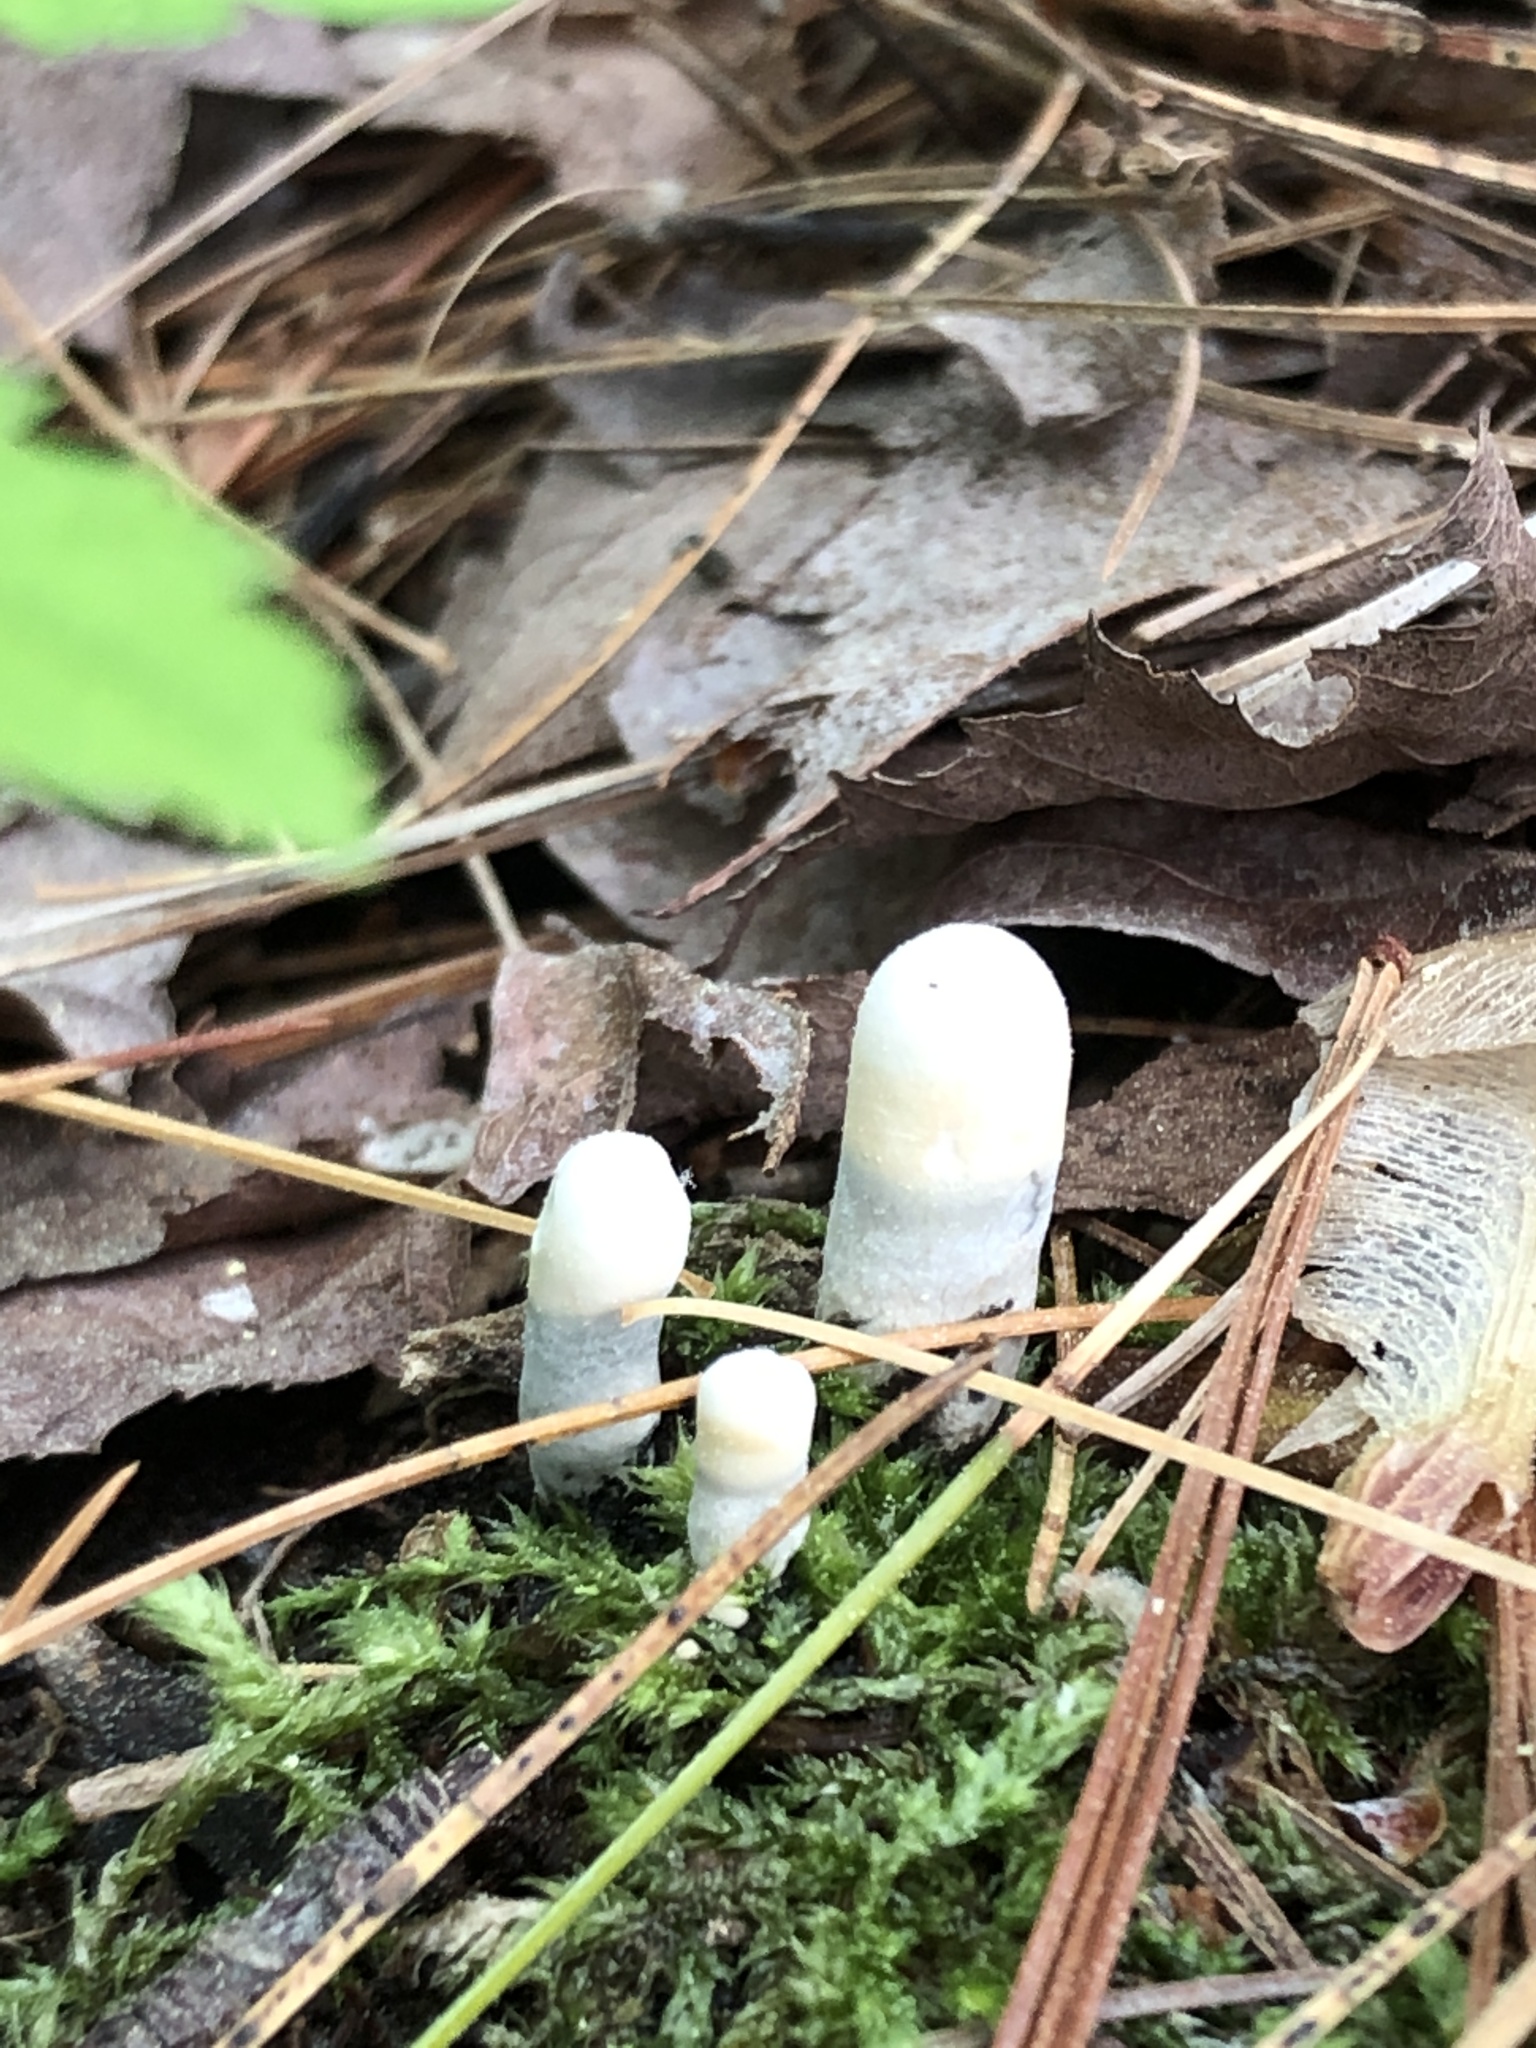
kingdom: Fungi
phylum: Ascomycota
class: Sordariomycetes
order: Xylariales
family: Xylariaceae
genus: Xylaria
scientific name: Xylaria polymorpha
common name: Dead man's fingers
